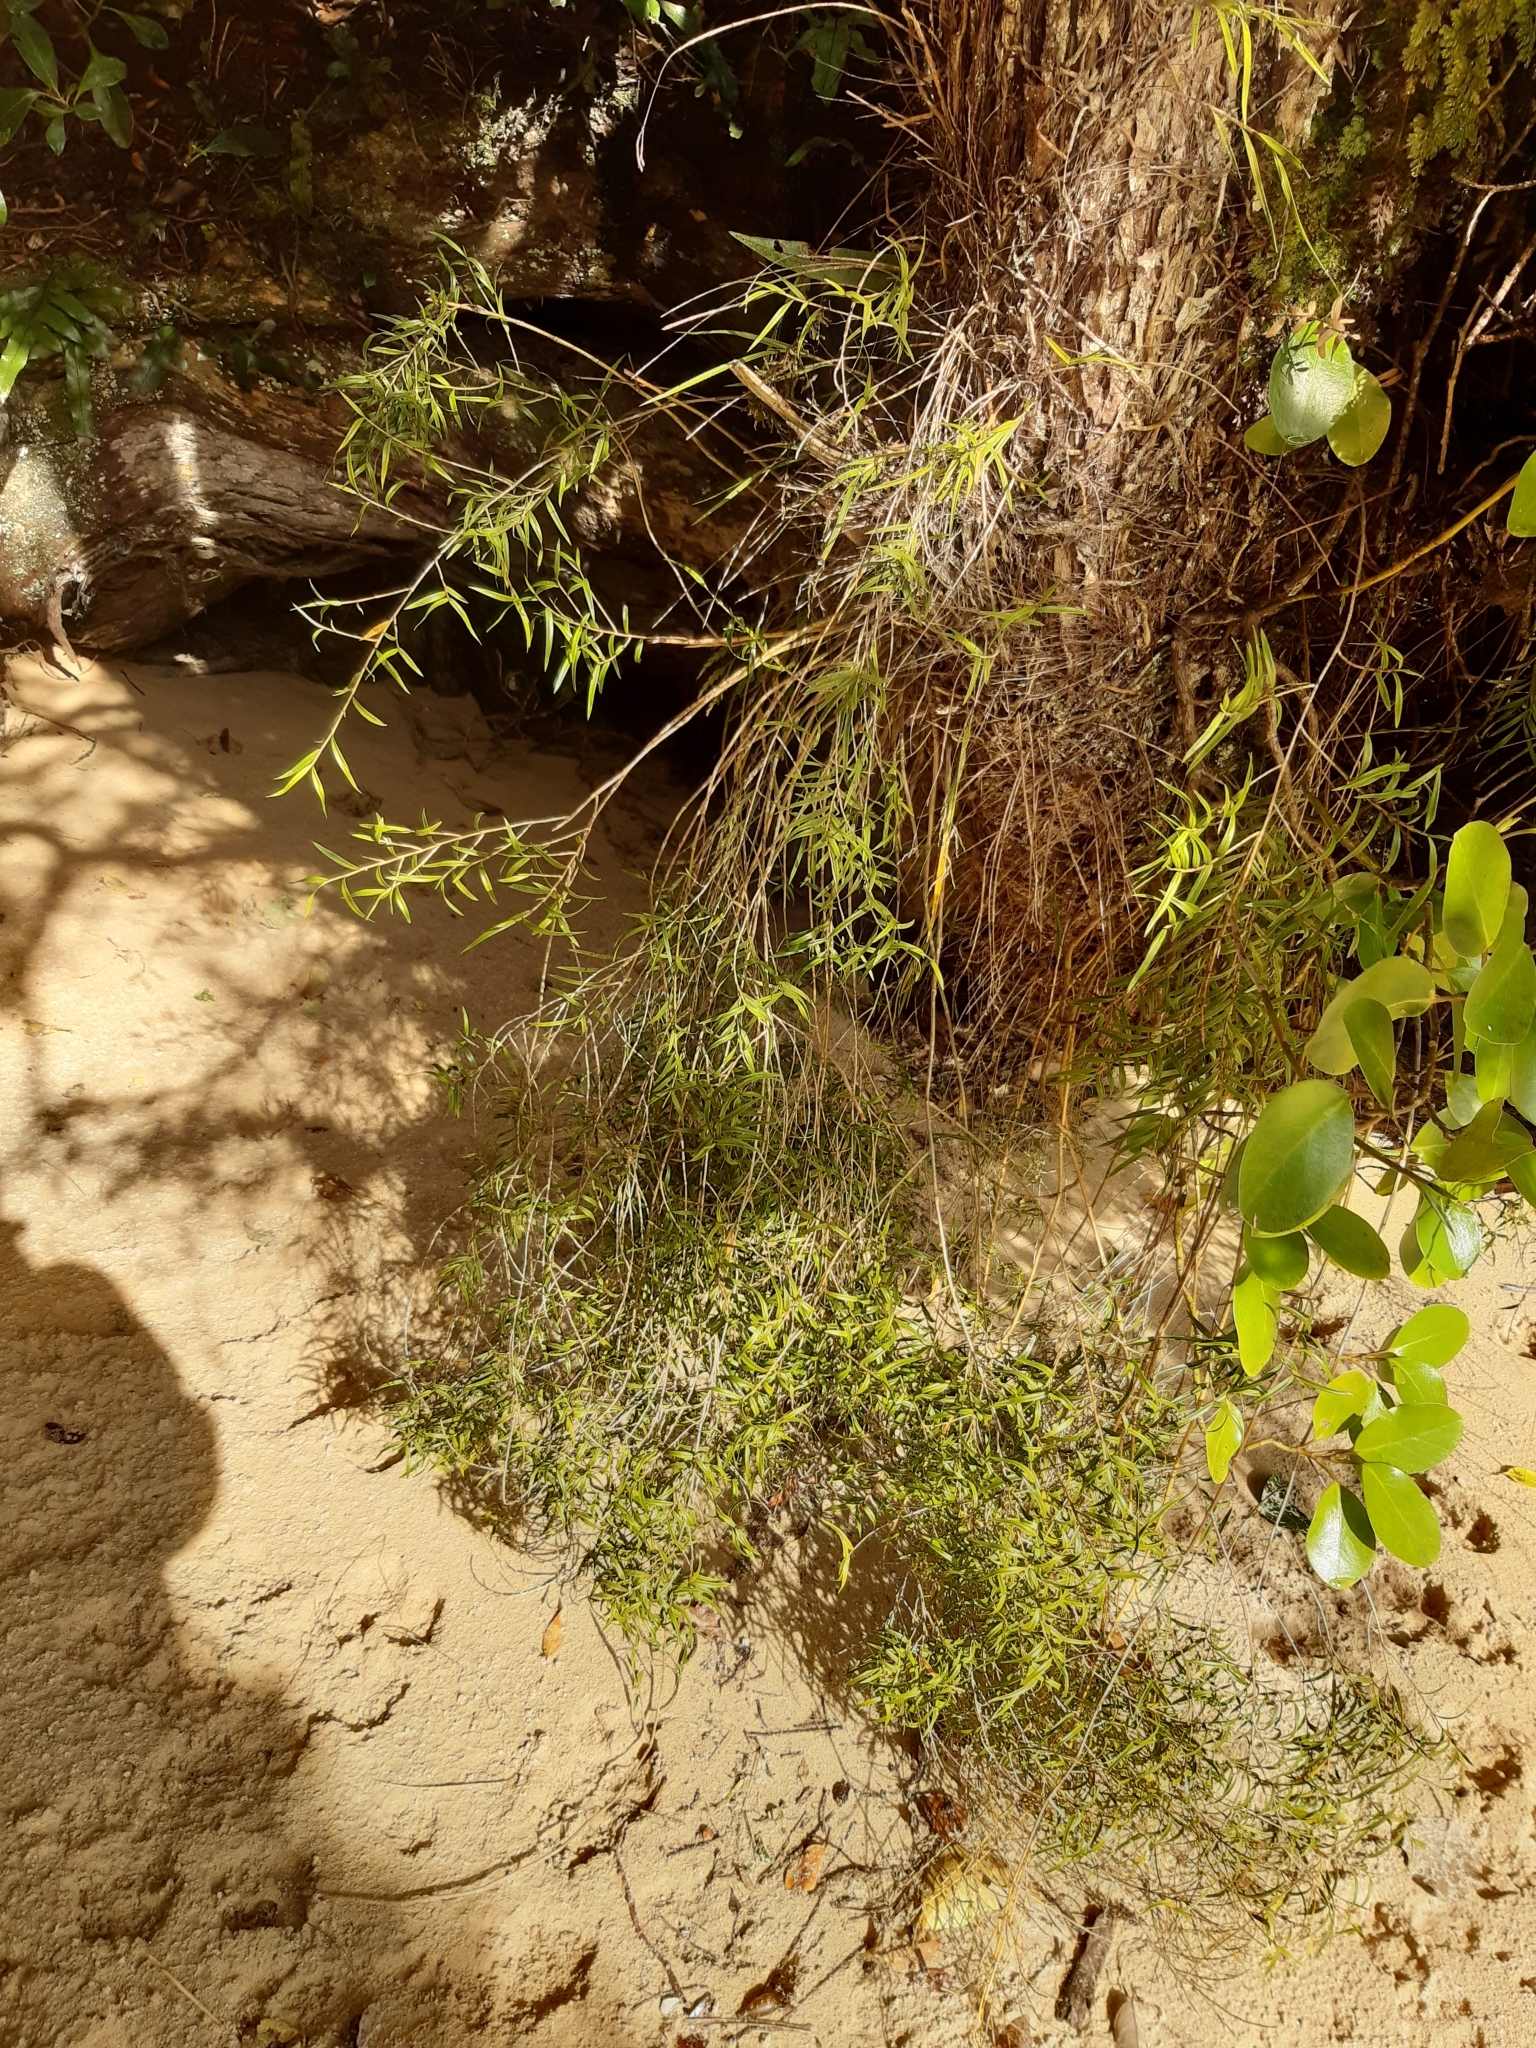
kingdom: Plantae
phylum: Tracheophyta
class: Liliopsida
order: Asparagales
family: Orchidaceae
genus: Dendrobium
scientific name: Dendrobium cunninghamii
